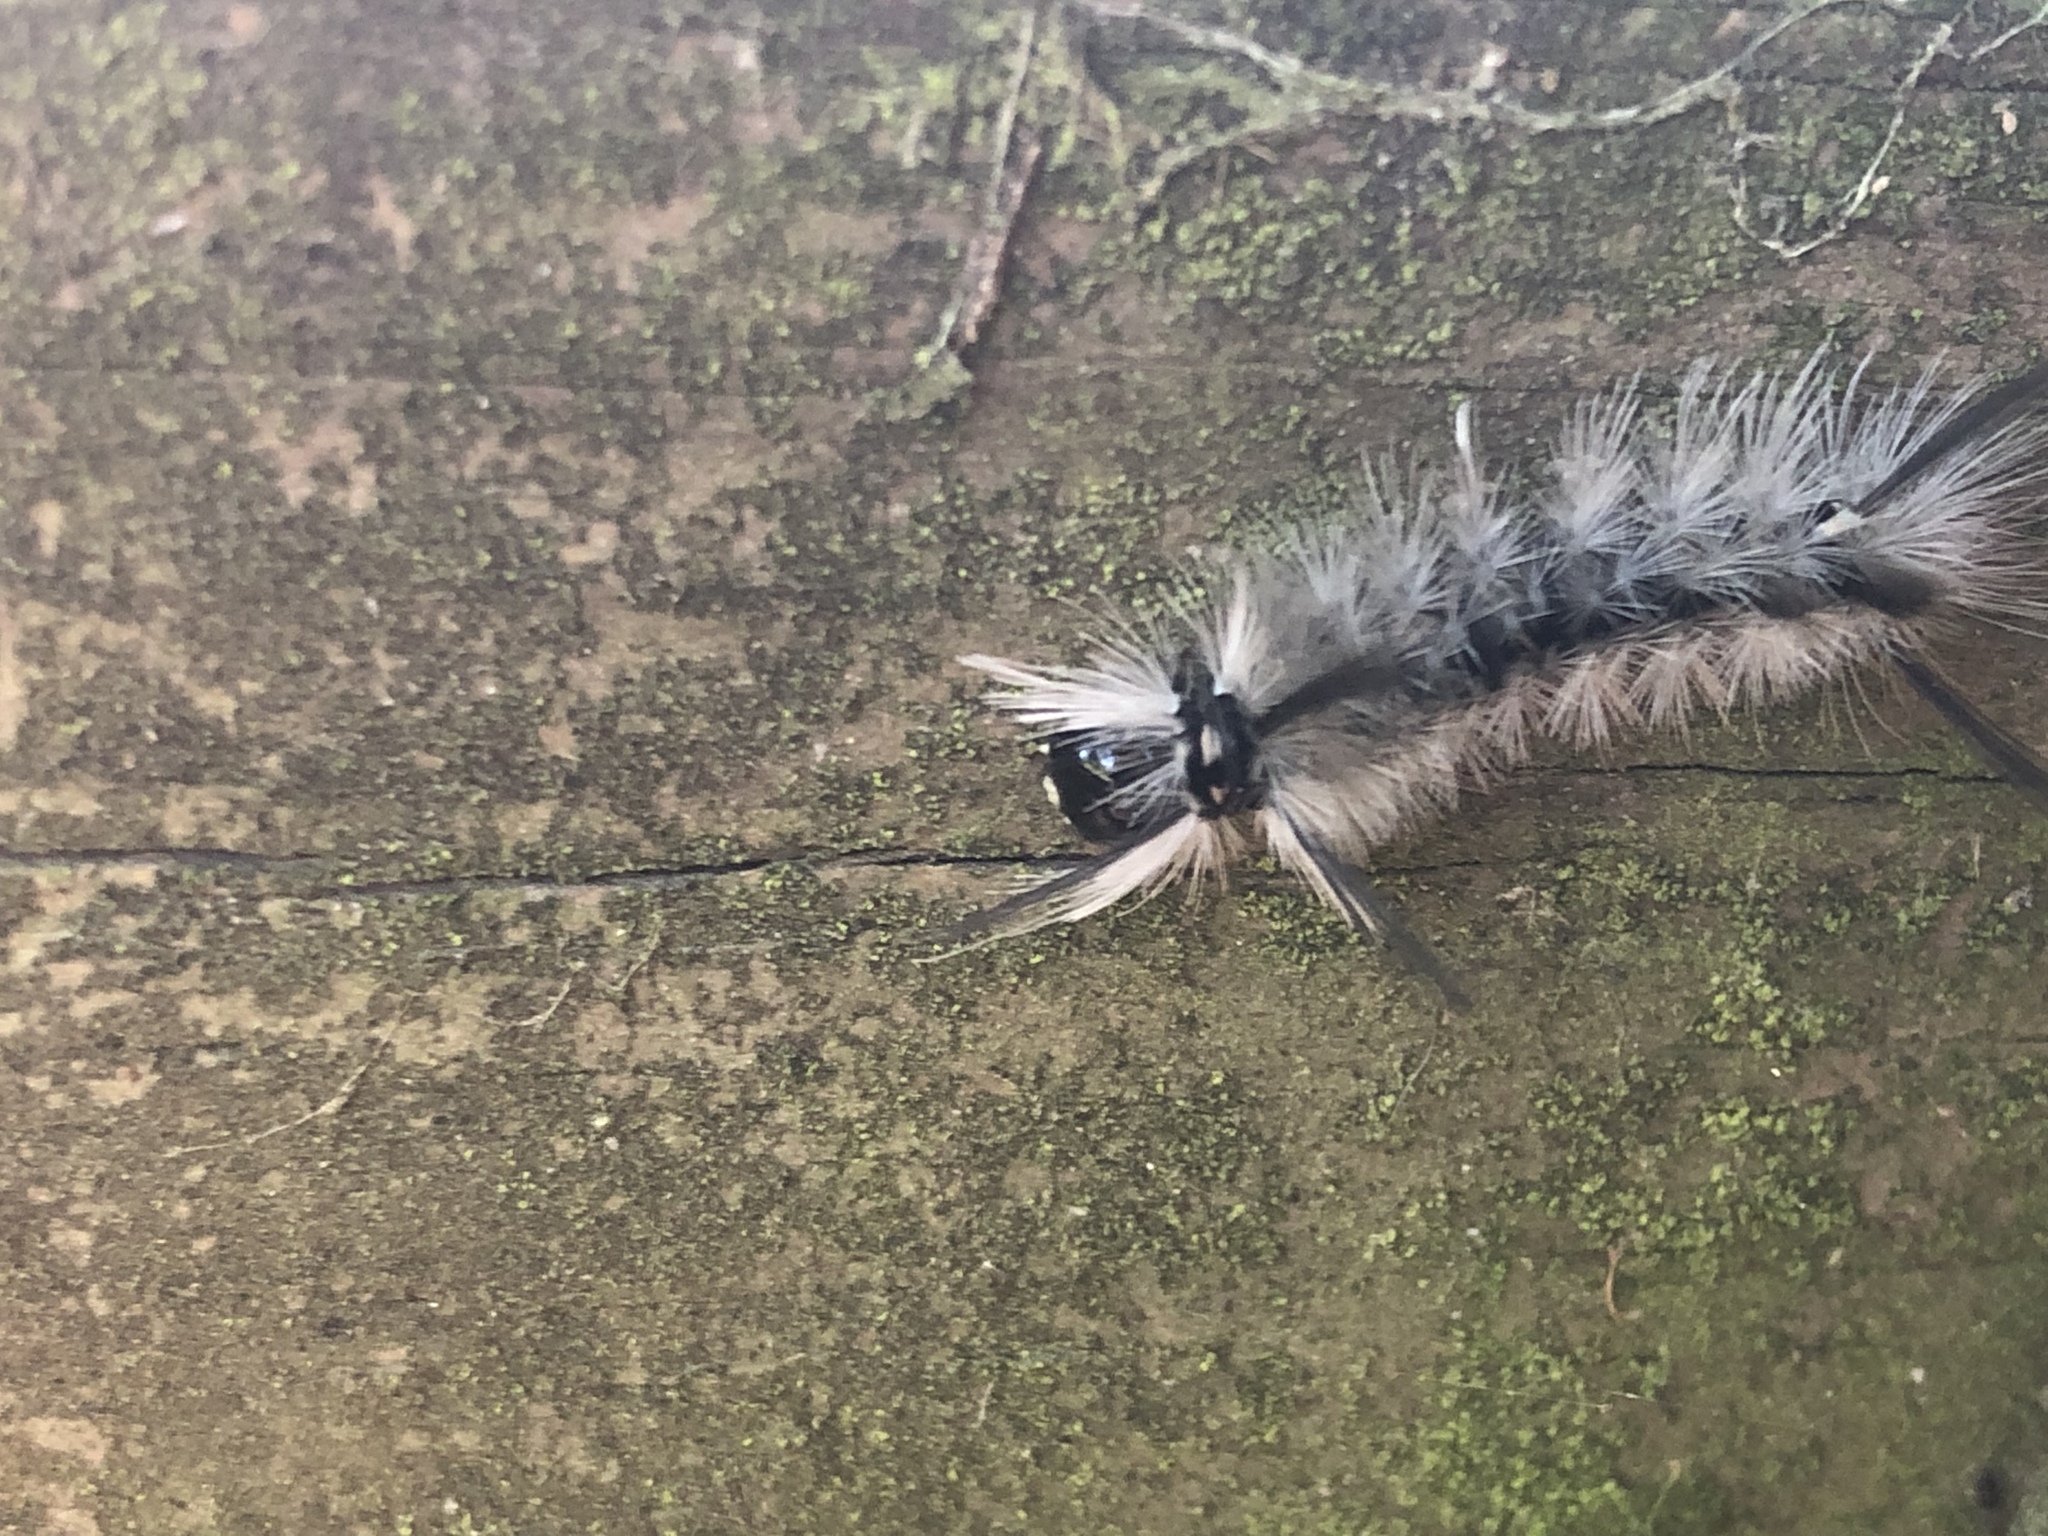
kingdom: Animalia
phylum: Arthropoda
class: Insecta
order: Lepidoptera
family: Erebidae
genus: Halysidota
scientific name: Halysidota tessellaris
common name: Banded tussock moth
